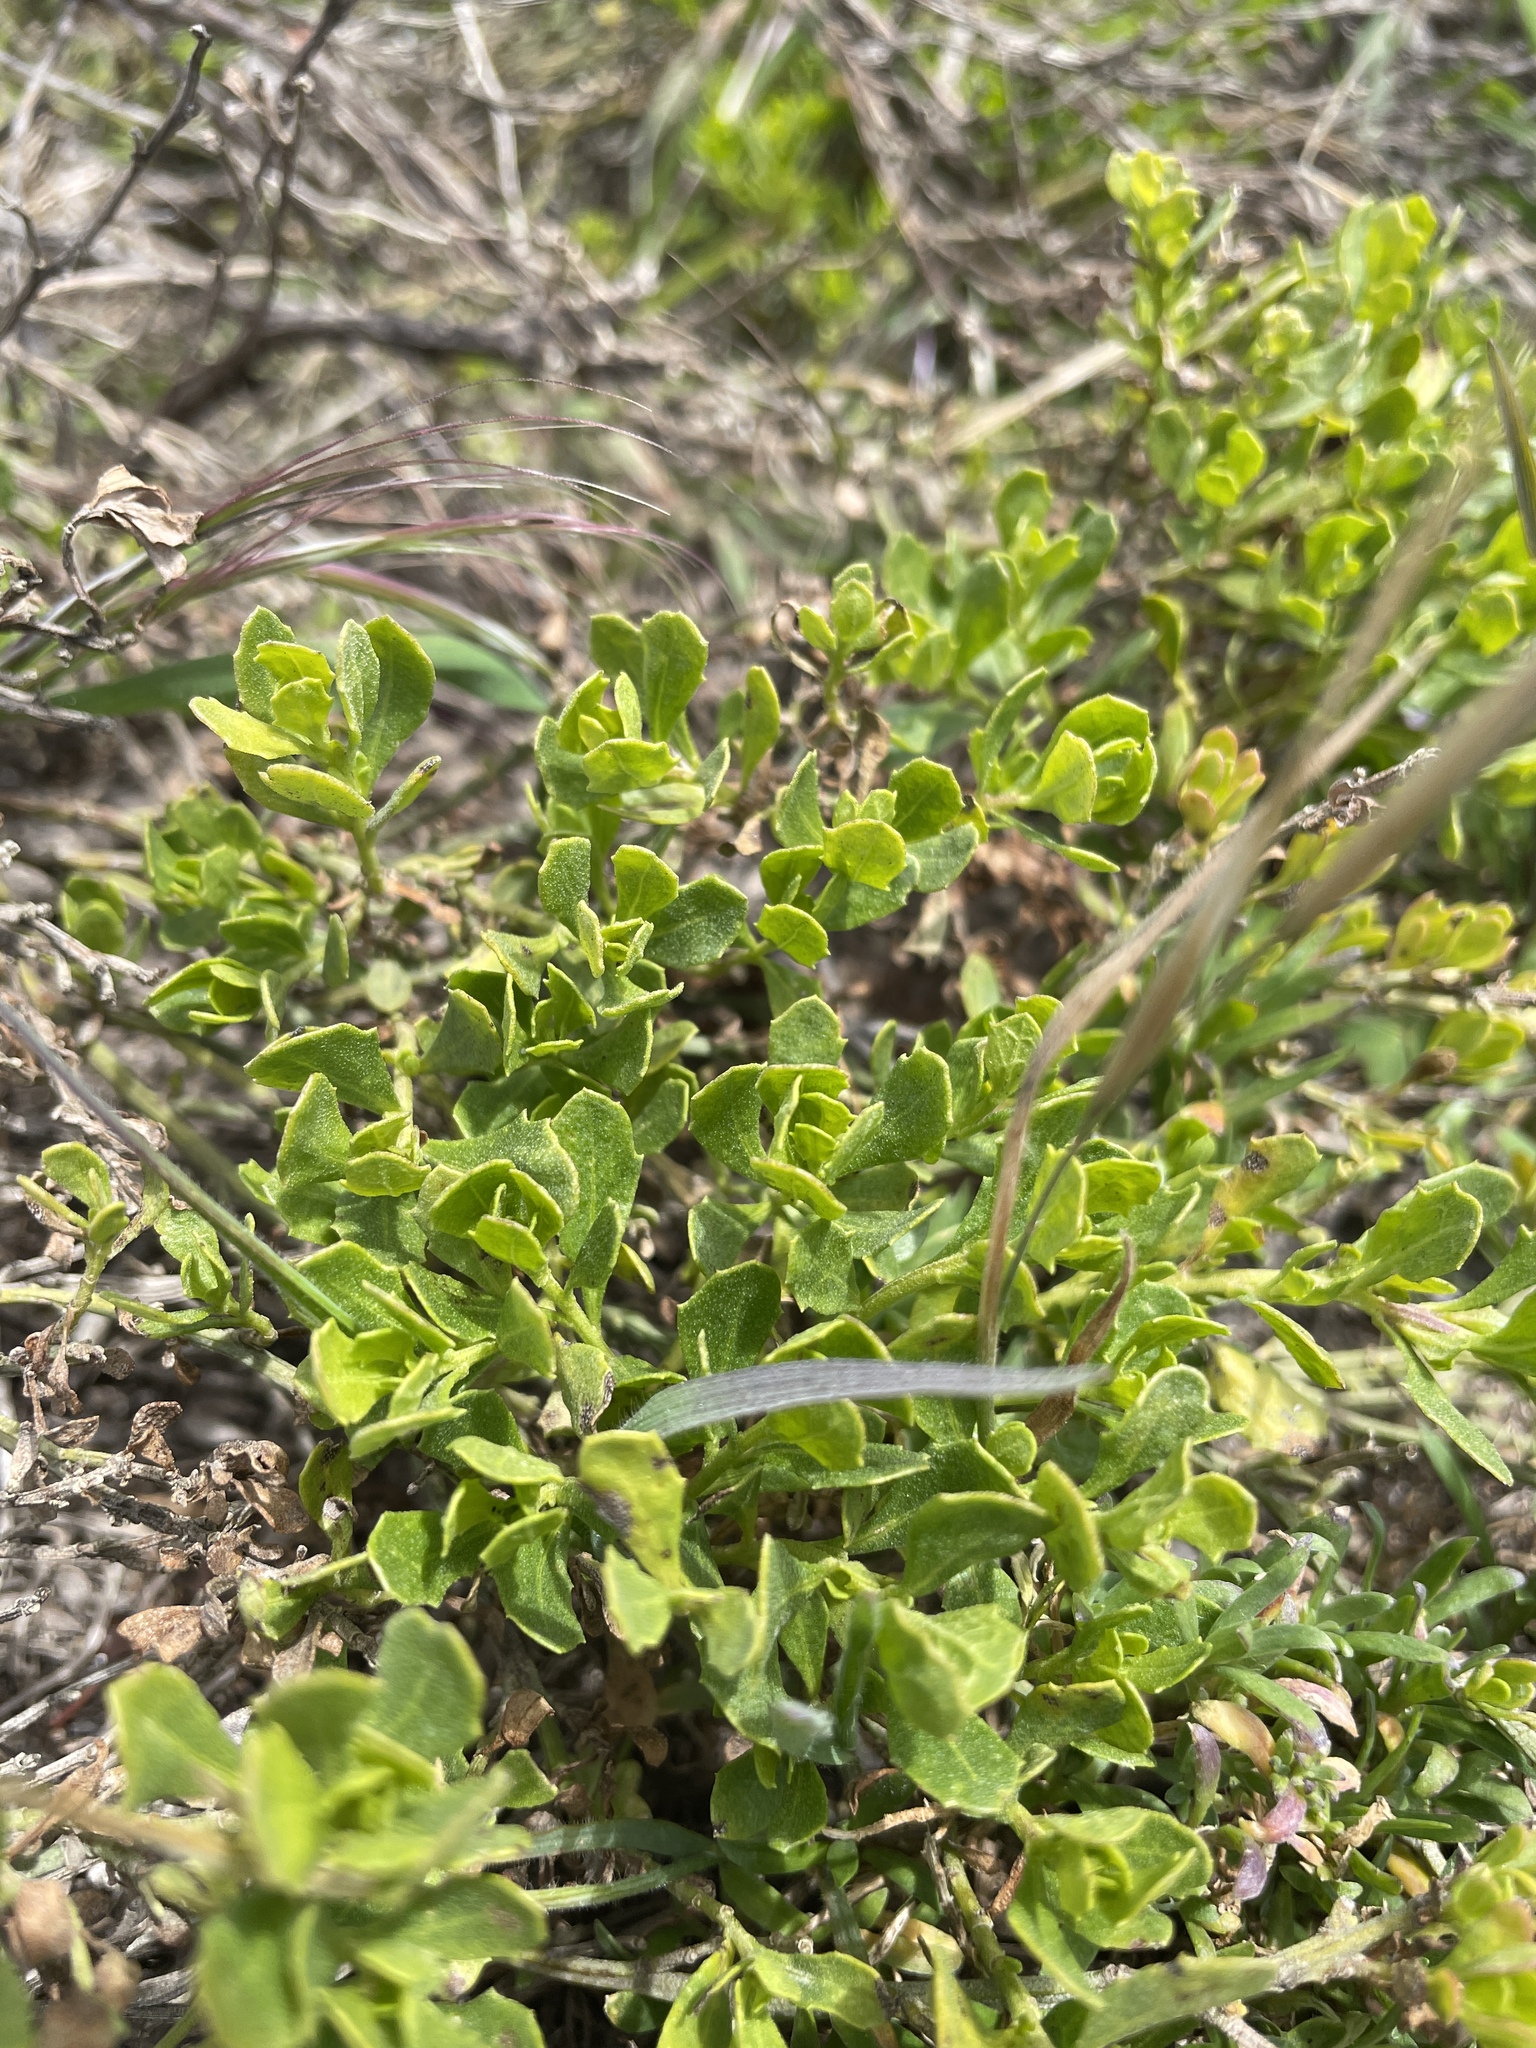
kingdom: Plantae
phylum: Tracheophyta
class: Magnoliopsida
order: Asterales
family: Asteraceae
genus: Baccharis
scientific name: Baccharis pilularis
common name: Coyotebrush
